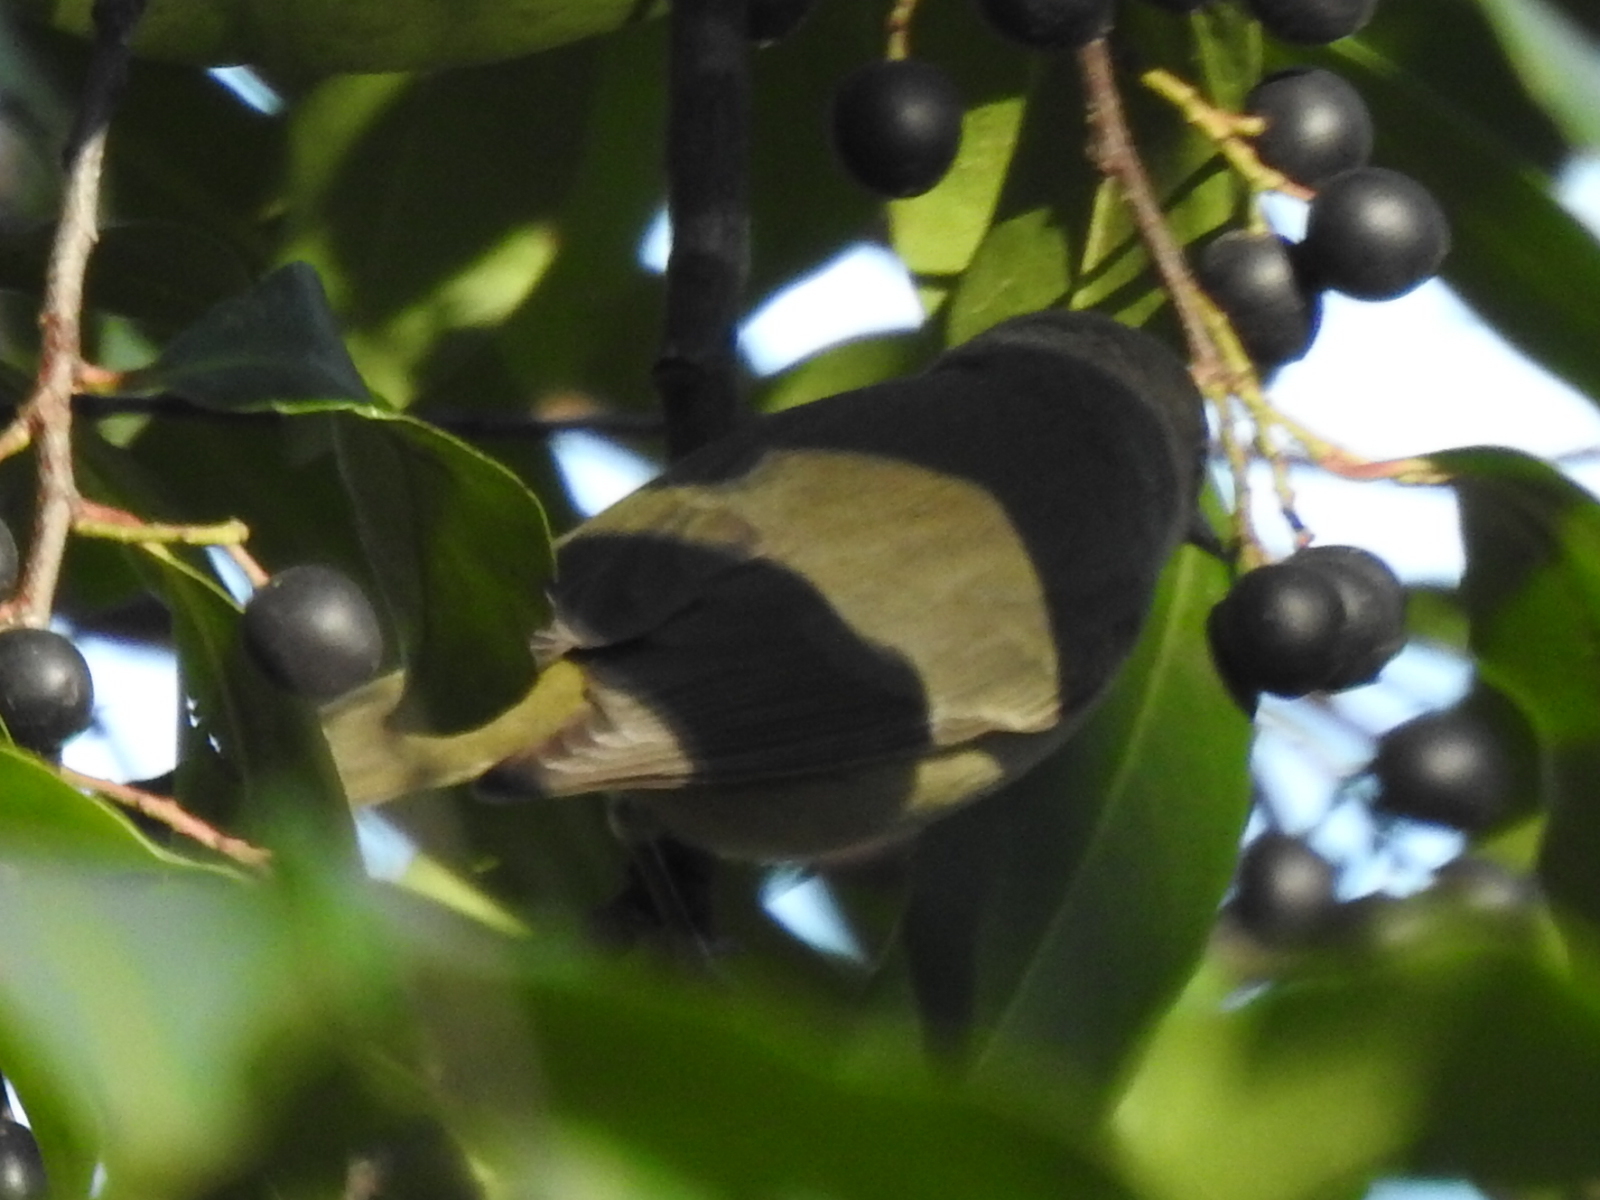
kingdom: Animalia
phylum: Chordata
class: Aves
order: Passeriformes
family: Parulidae
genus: Leiothlypis
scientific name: Leiothlypis celata
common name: Orange-crowned warbler
